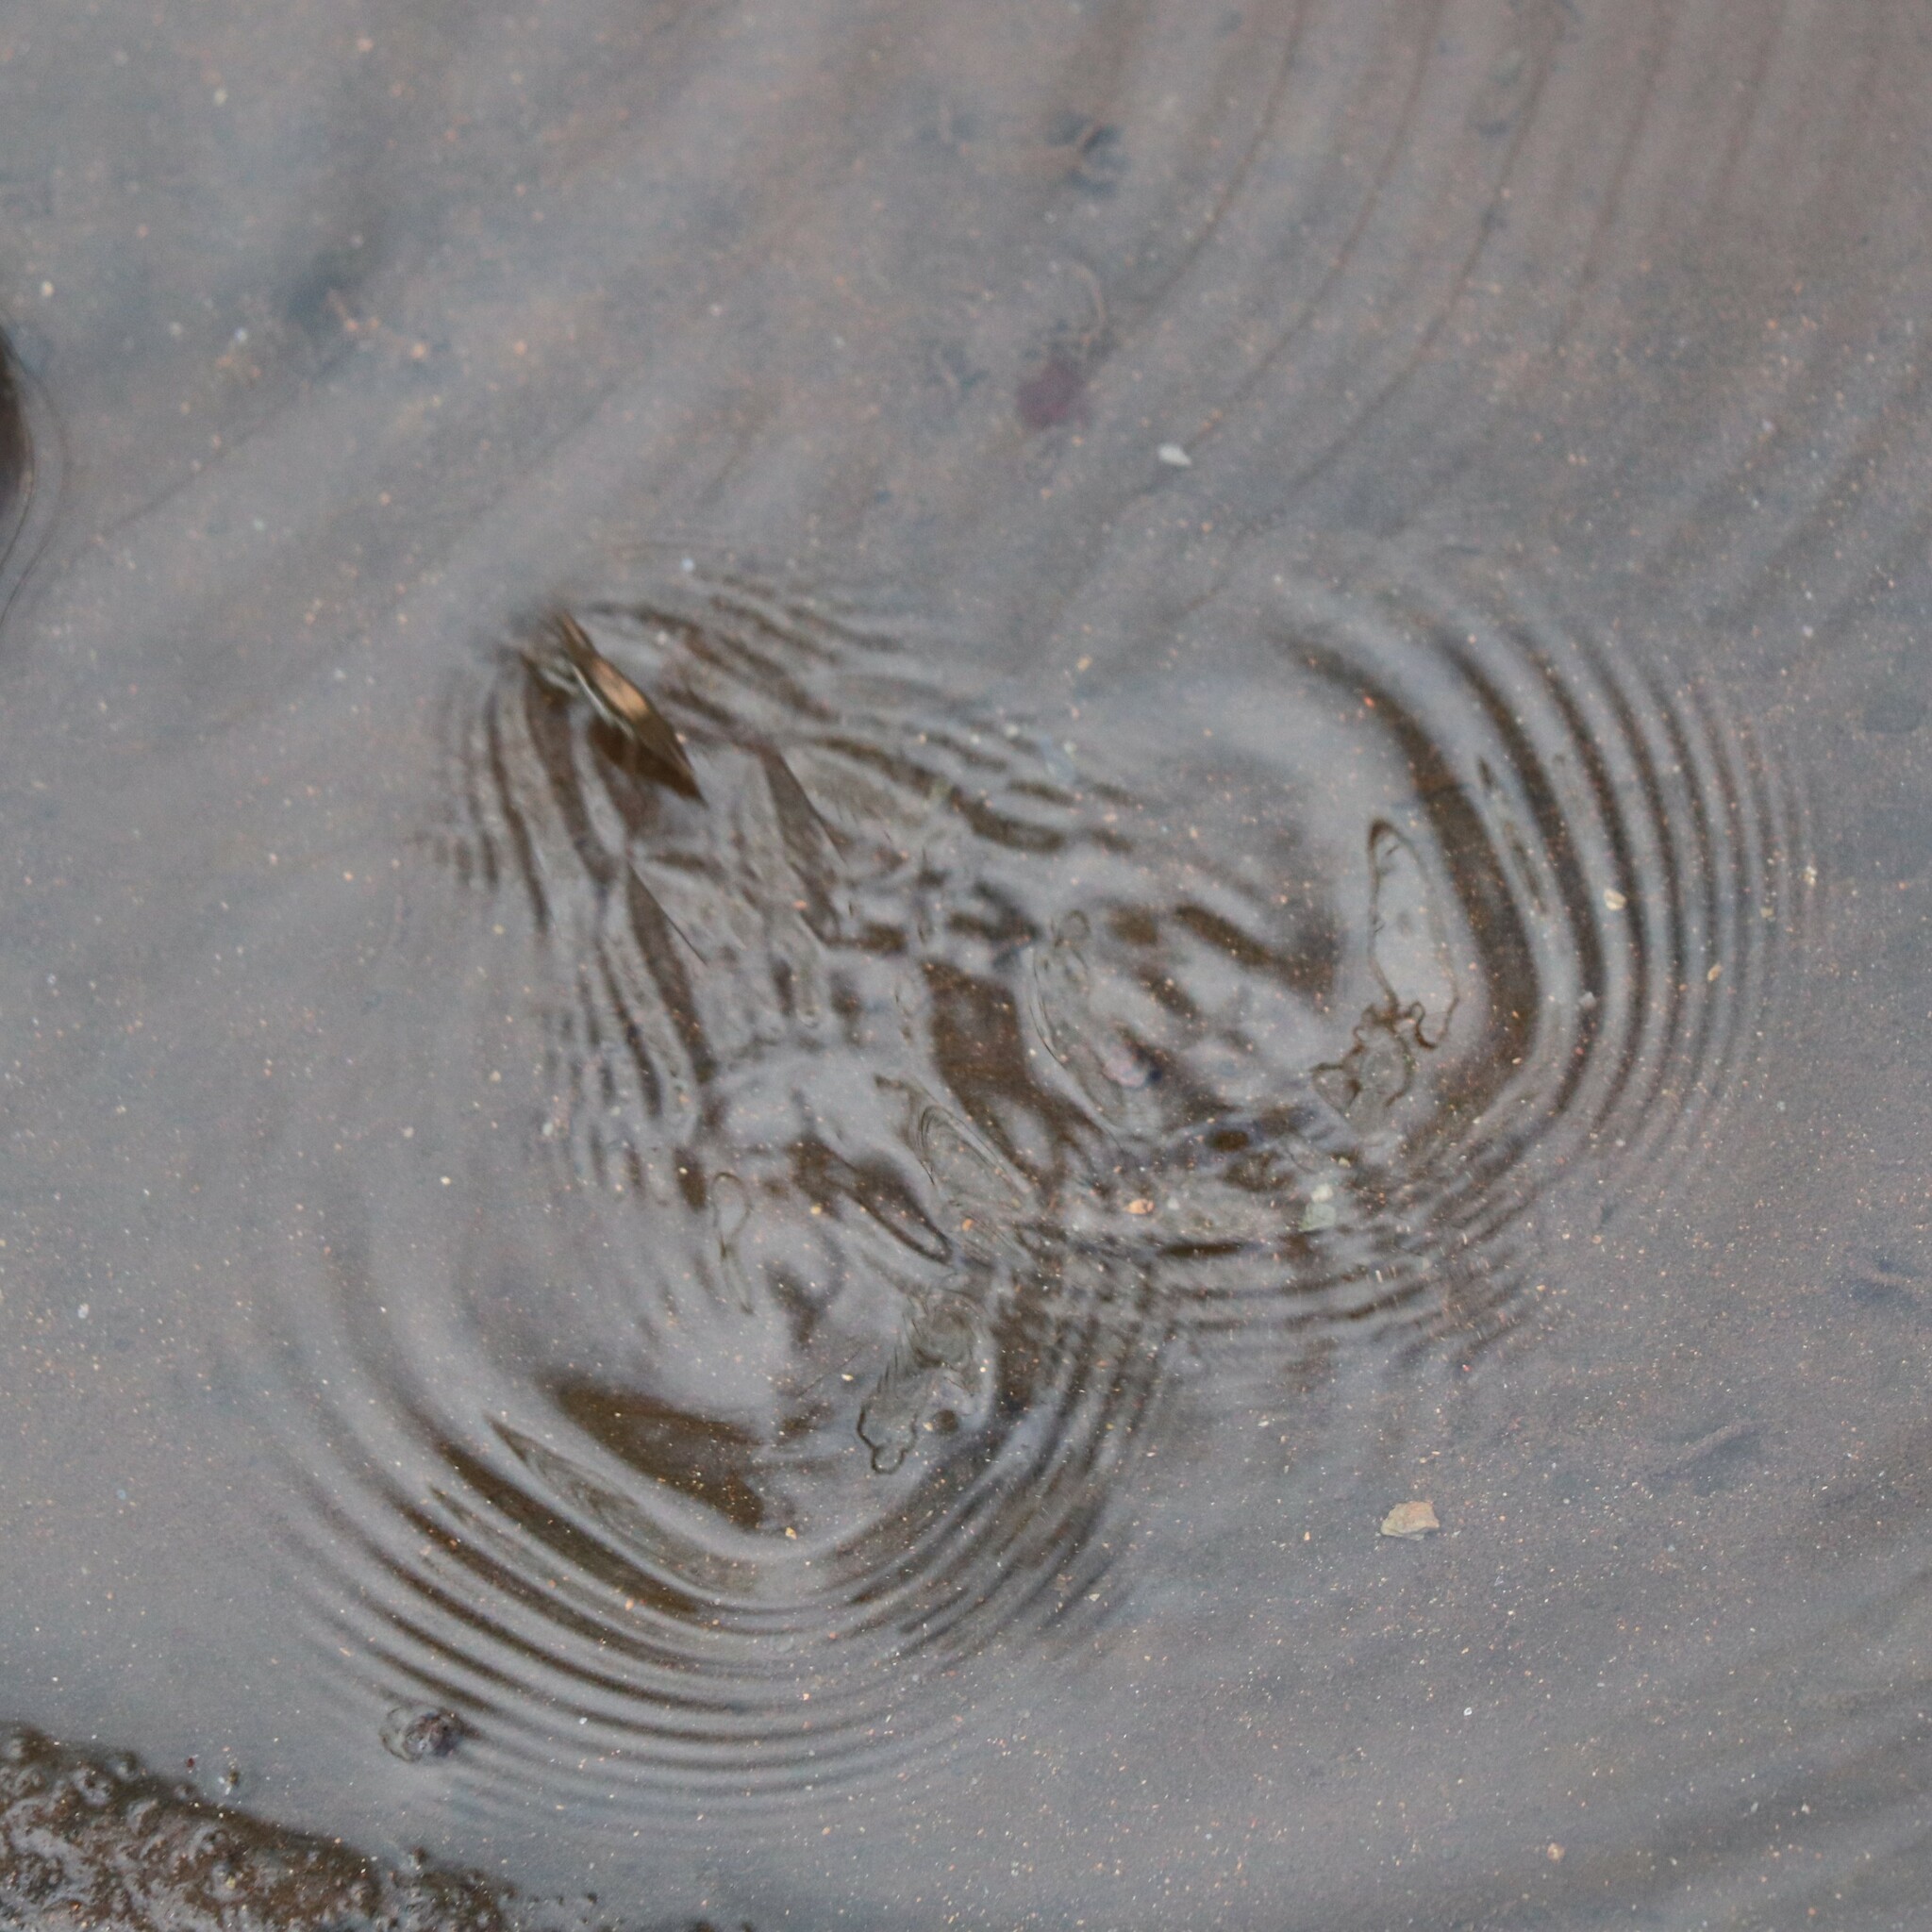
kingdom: Animalia
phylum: Arthropoda
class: Insecta
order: Hemiptera
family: Gerridae
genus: Aquarius
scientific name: Aquarius
